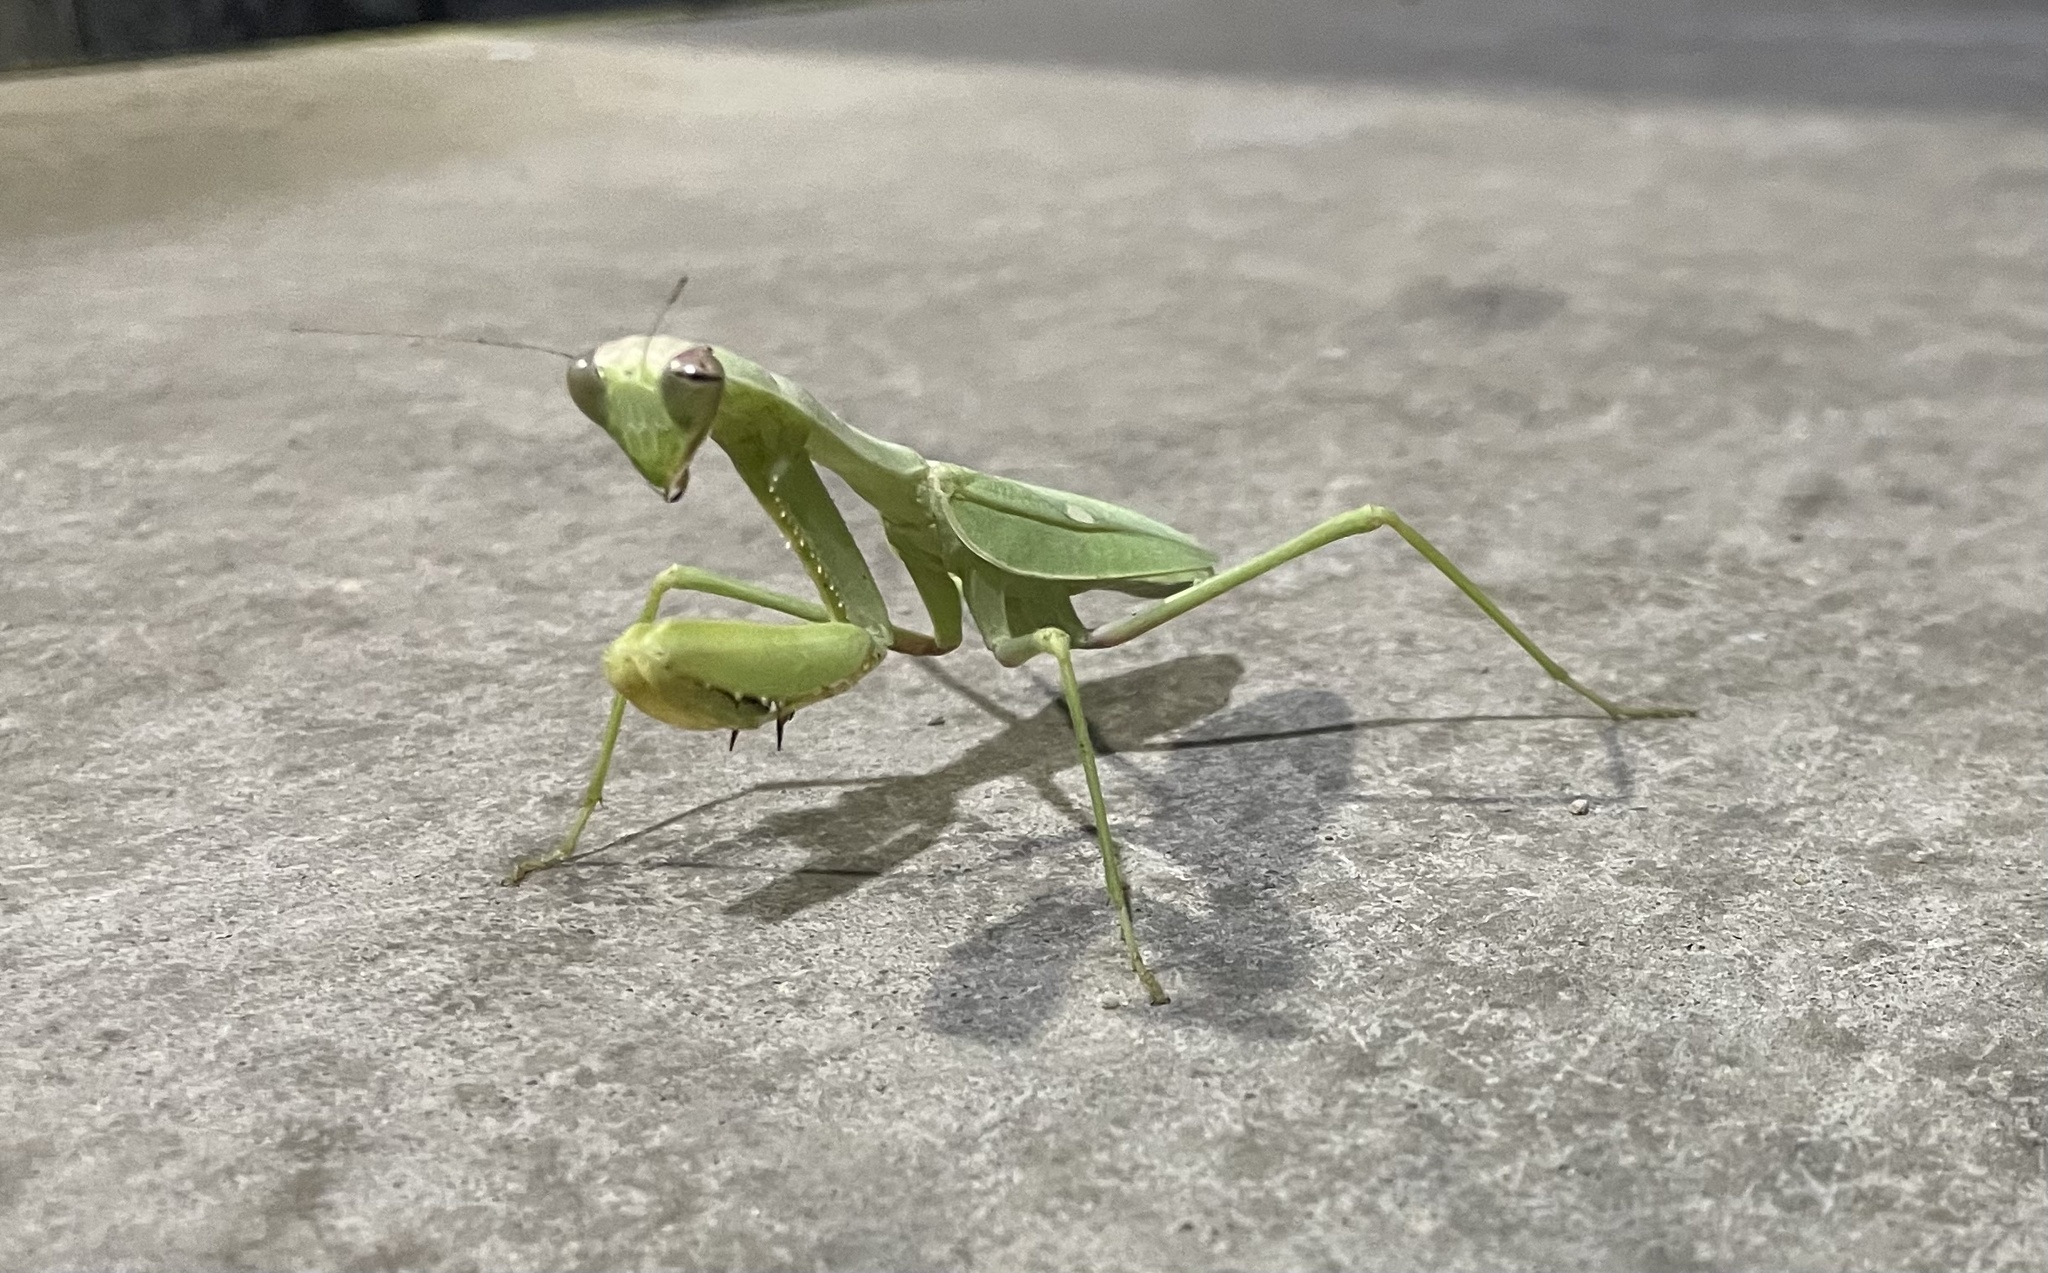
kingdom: Animalia
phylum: Arthropoda
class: Insecta
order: Mantodea
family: Mantidae
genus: Sphodromantis
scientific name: Sphodromantis viridis
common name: Giant african mantis
